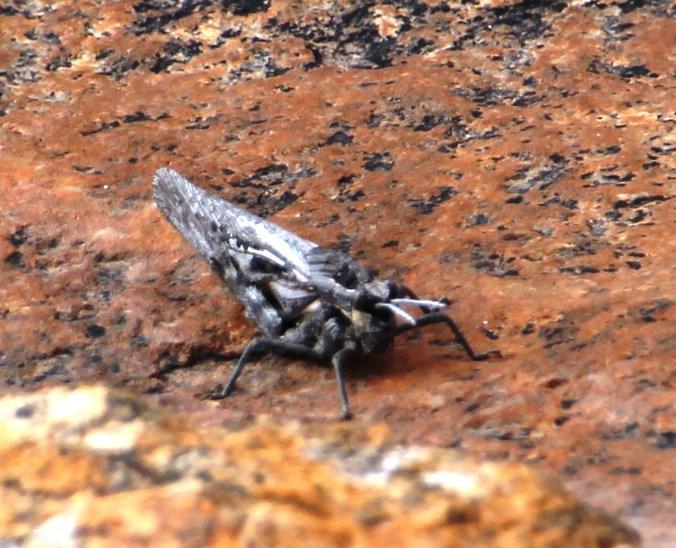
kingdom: Animalia
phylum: Arthropoda
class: Insecta
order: Orthoptera
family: Pamphagidae
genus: Porthetis
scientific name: Porthetis carinata
